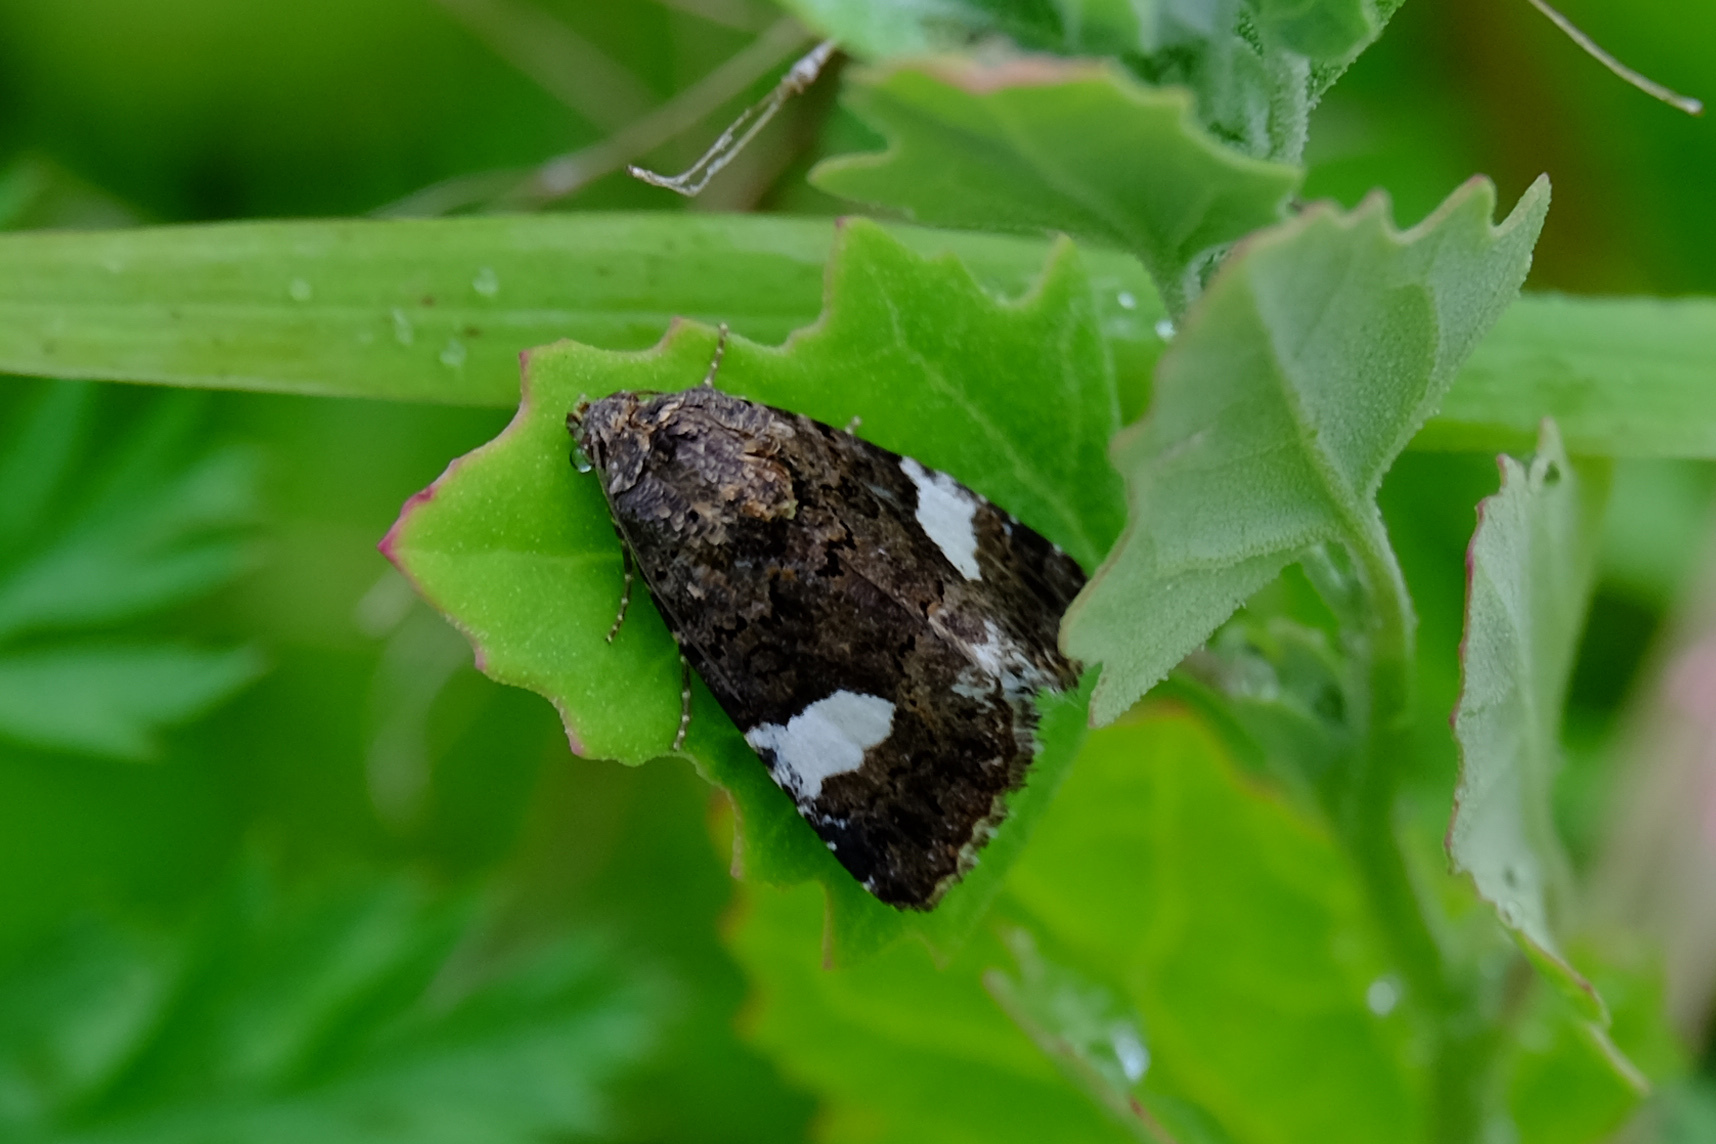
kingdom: Animalia
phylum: Arthropoda
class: Insecta
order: Lepidoptera
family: Erebidae
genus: Tyta
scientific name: Tyta luctuosa
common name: Four-spotted
